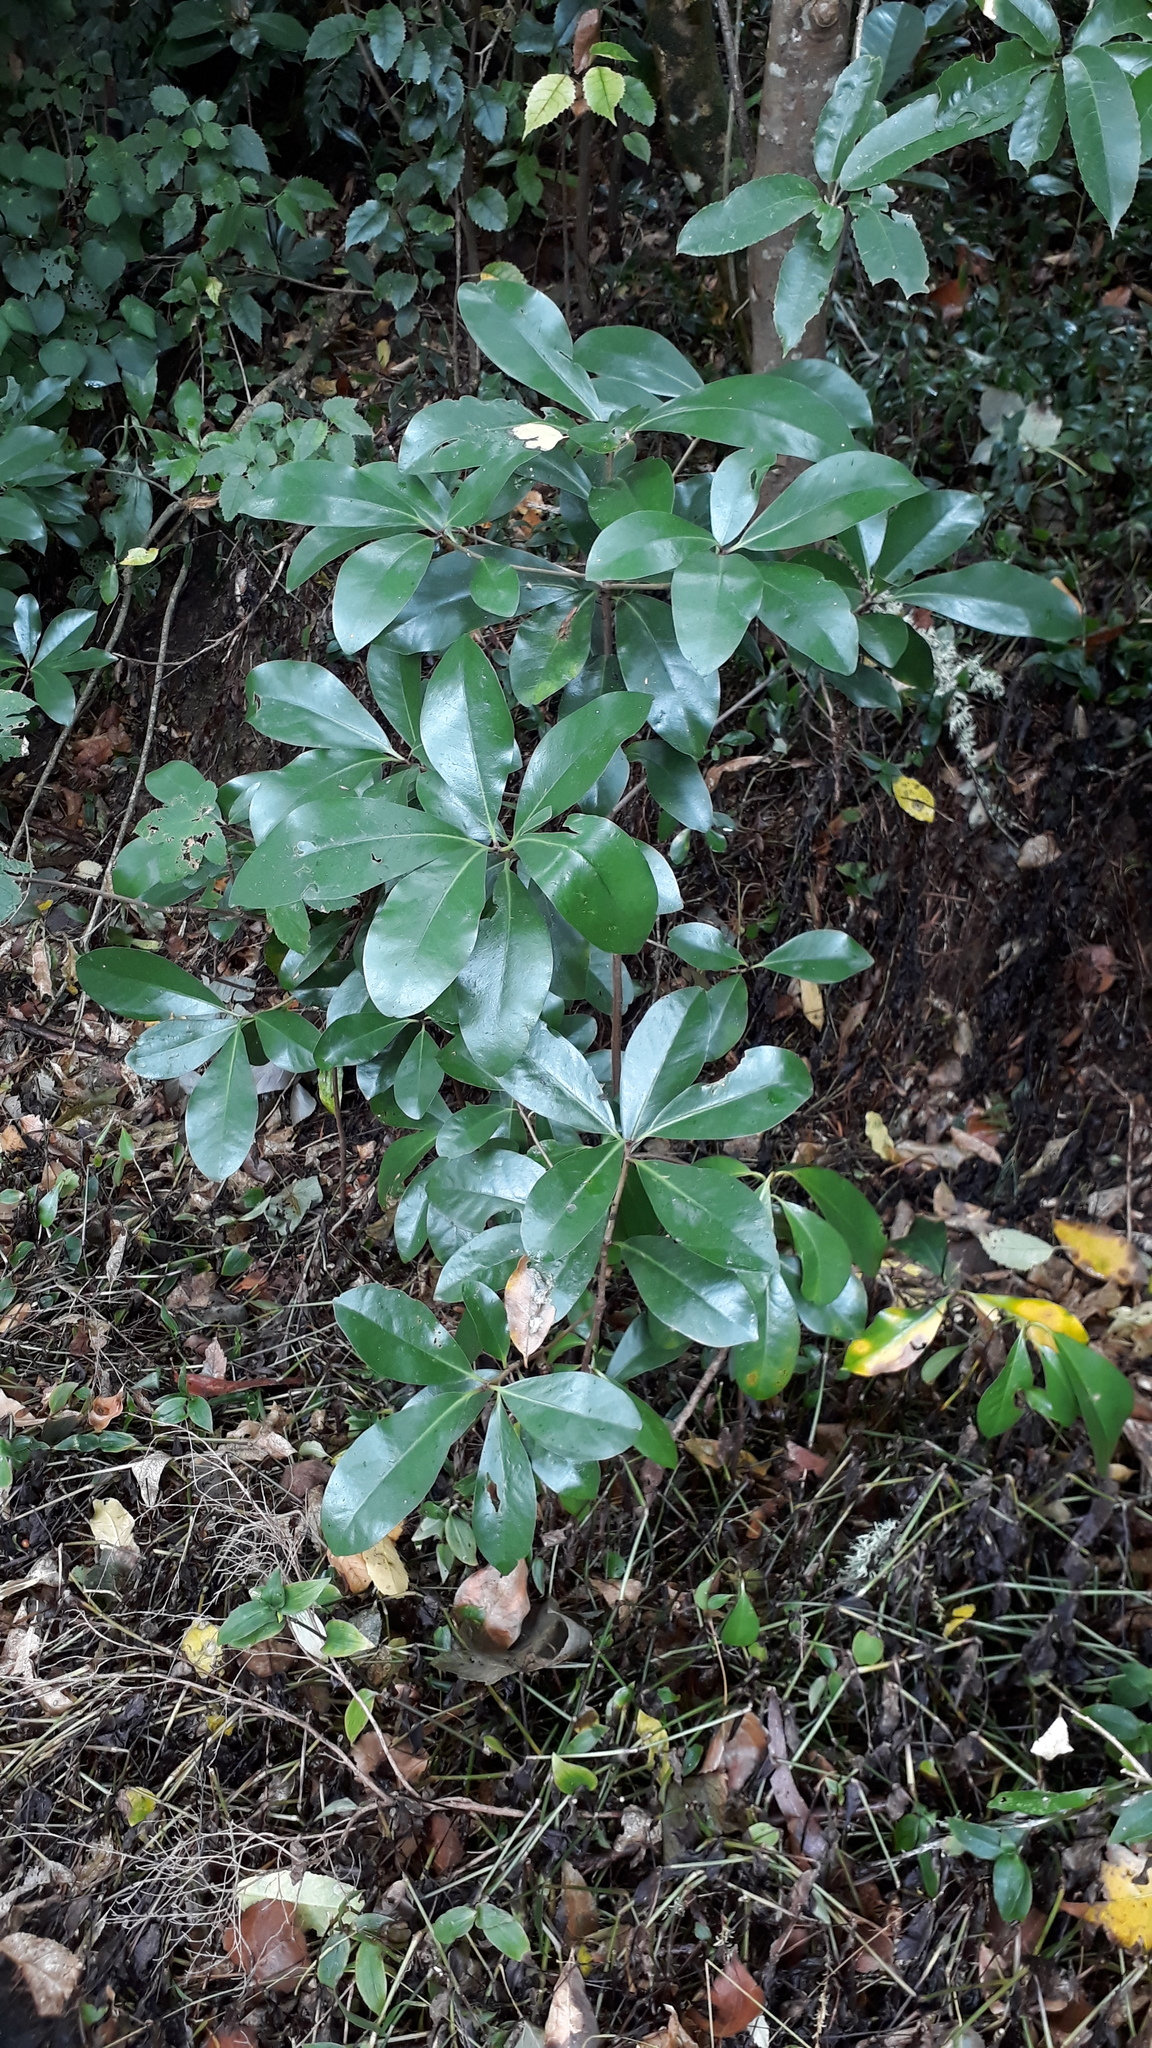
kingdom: Plantae
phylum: Tracheophyta
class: Magnoliopsida
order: Cucurbitales
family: Corynocarpaceae
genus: Corynocarpus
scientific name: Corynocarpus laevigatus
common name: New zealand laurel
